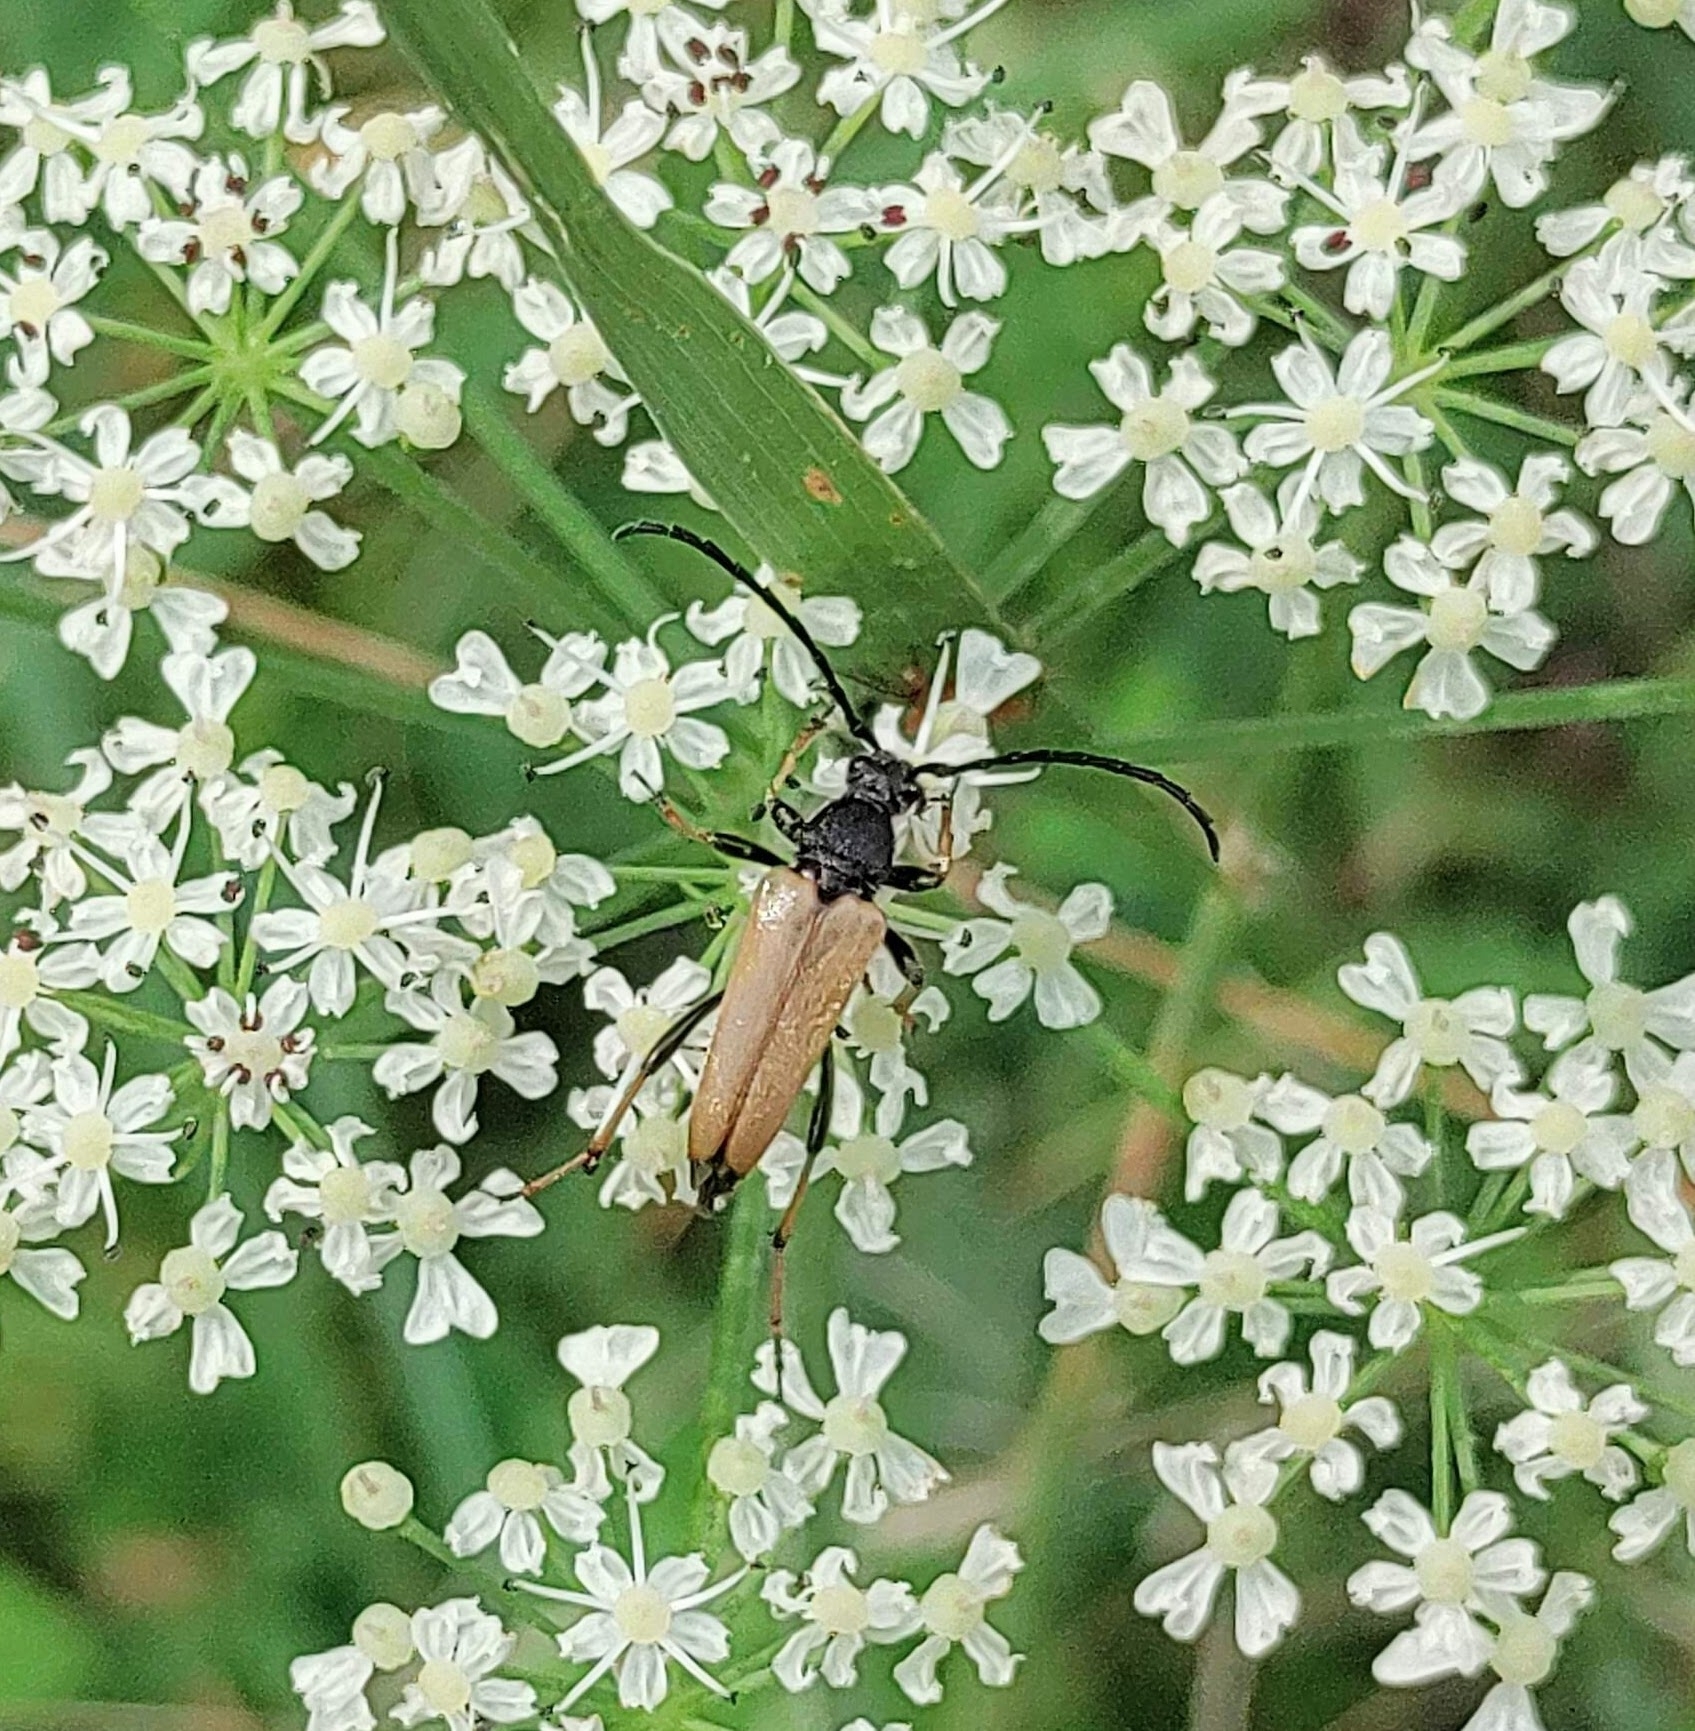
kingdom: Animalia
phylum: Arthropoda
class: Insecta
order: Coleoptera
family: Cerambycidae
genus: Stictoleptura
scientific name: Stictoleptura rubra
